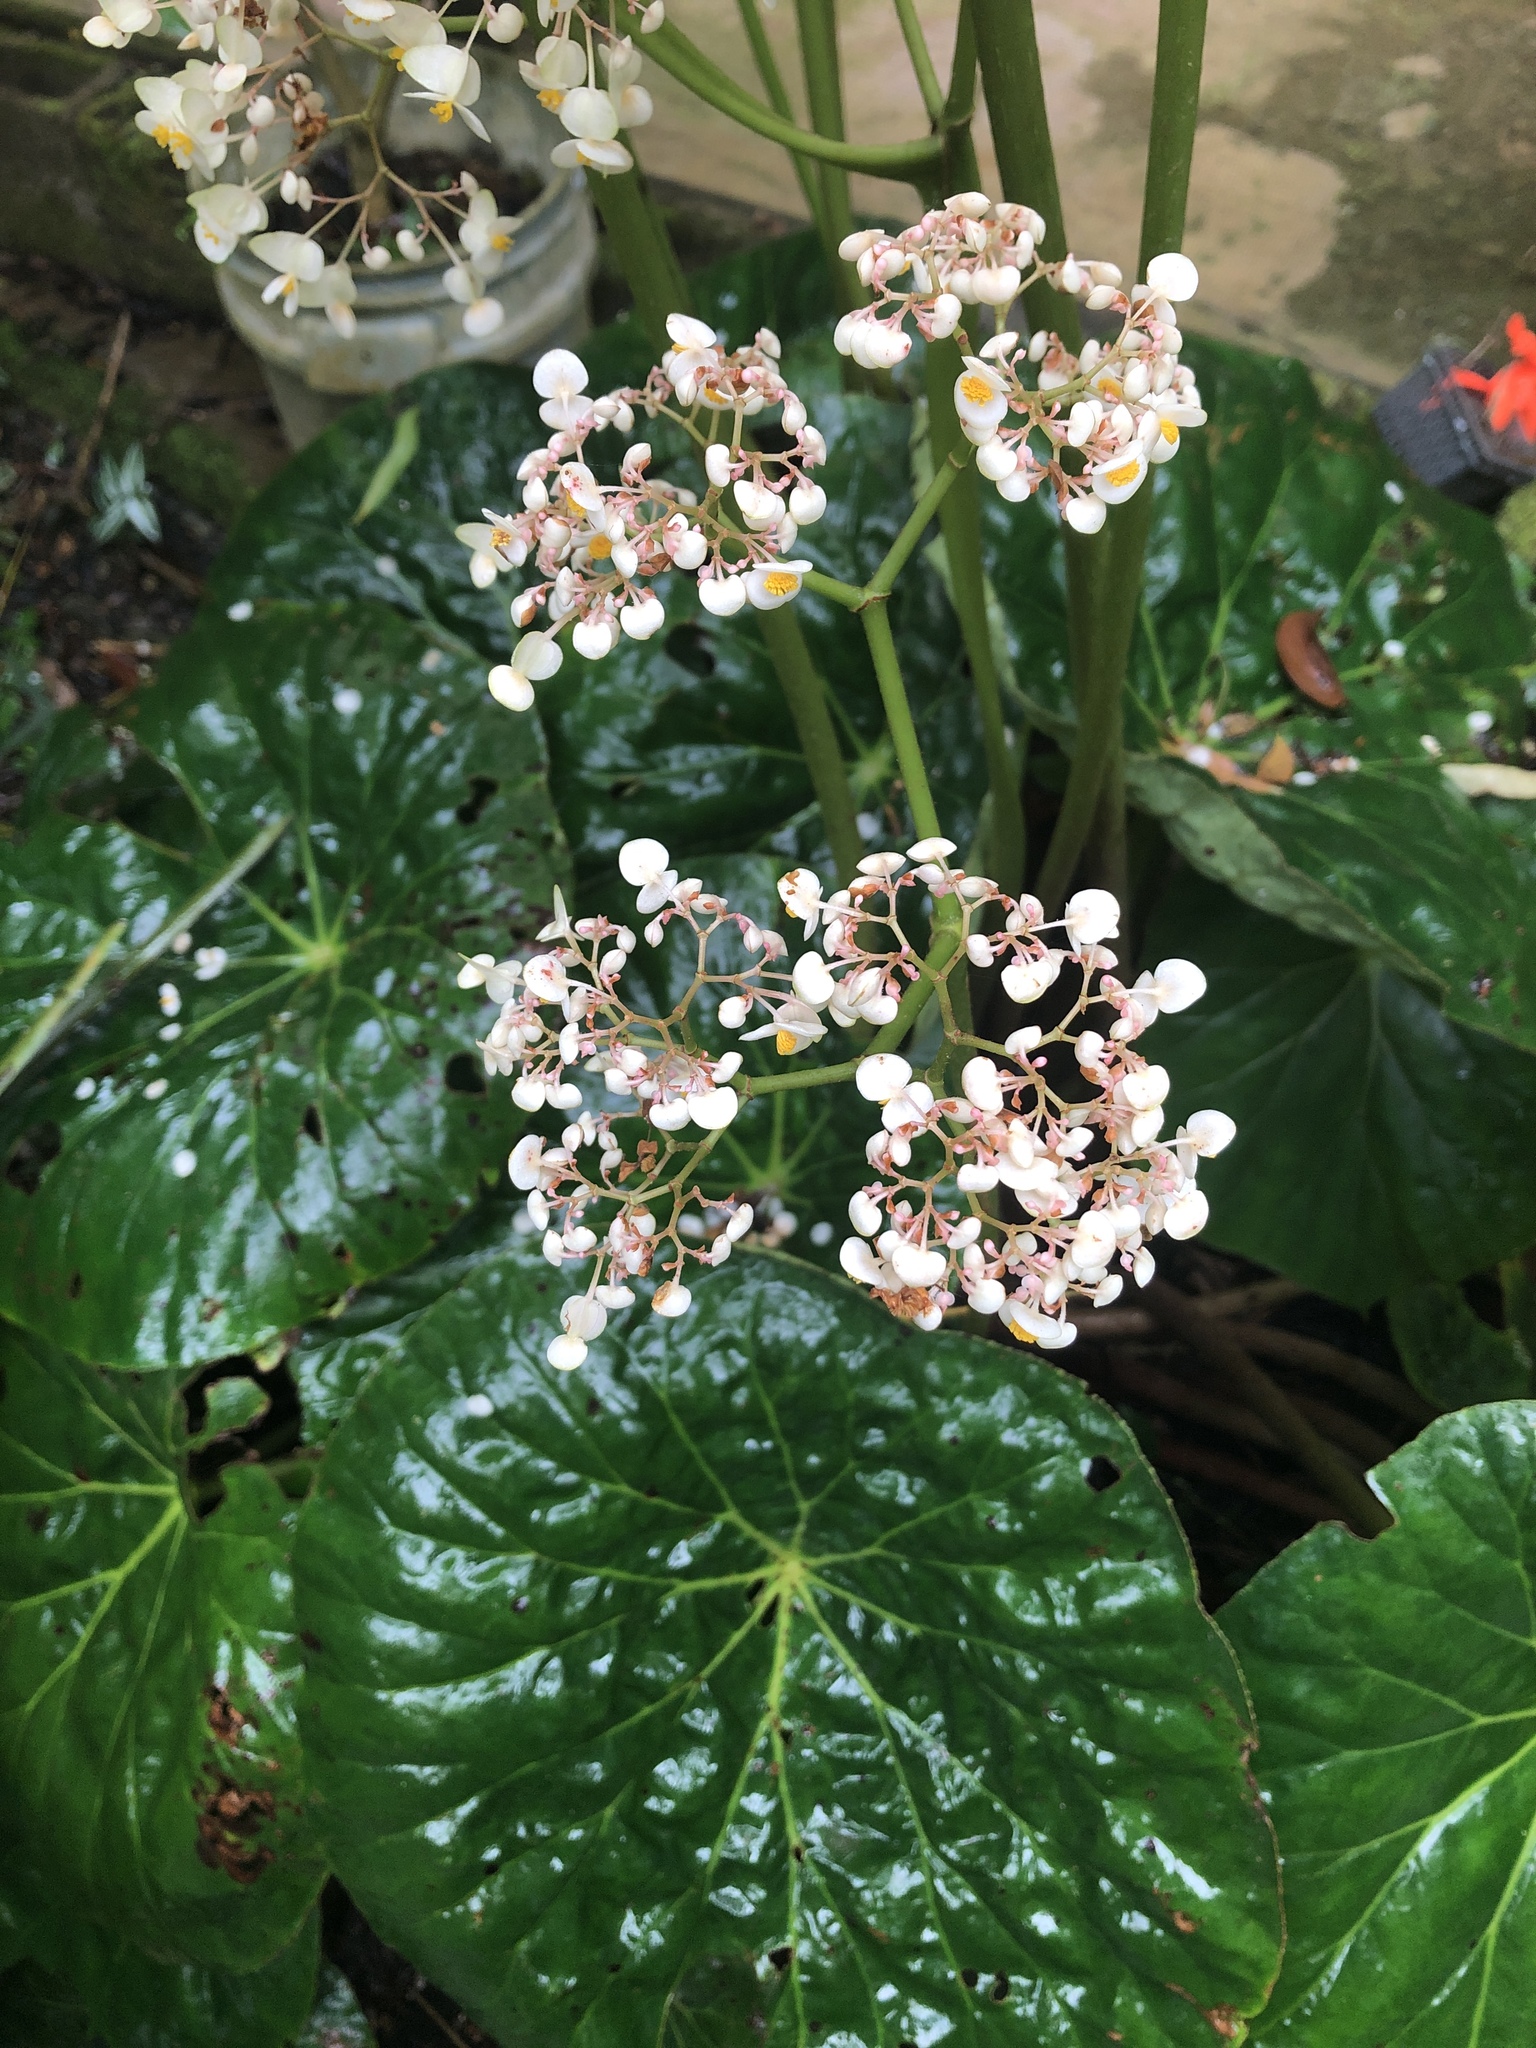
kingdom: Plantae
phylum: Tracheophyta
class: Magnoliopsida
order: Cucurbitales
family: Begoniaceae
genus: Begonia
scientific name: Begonia nelumbiifolia
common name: Lilypad begonia
